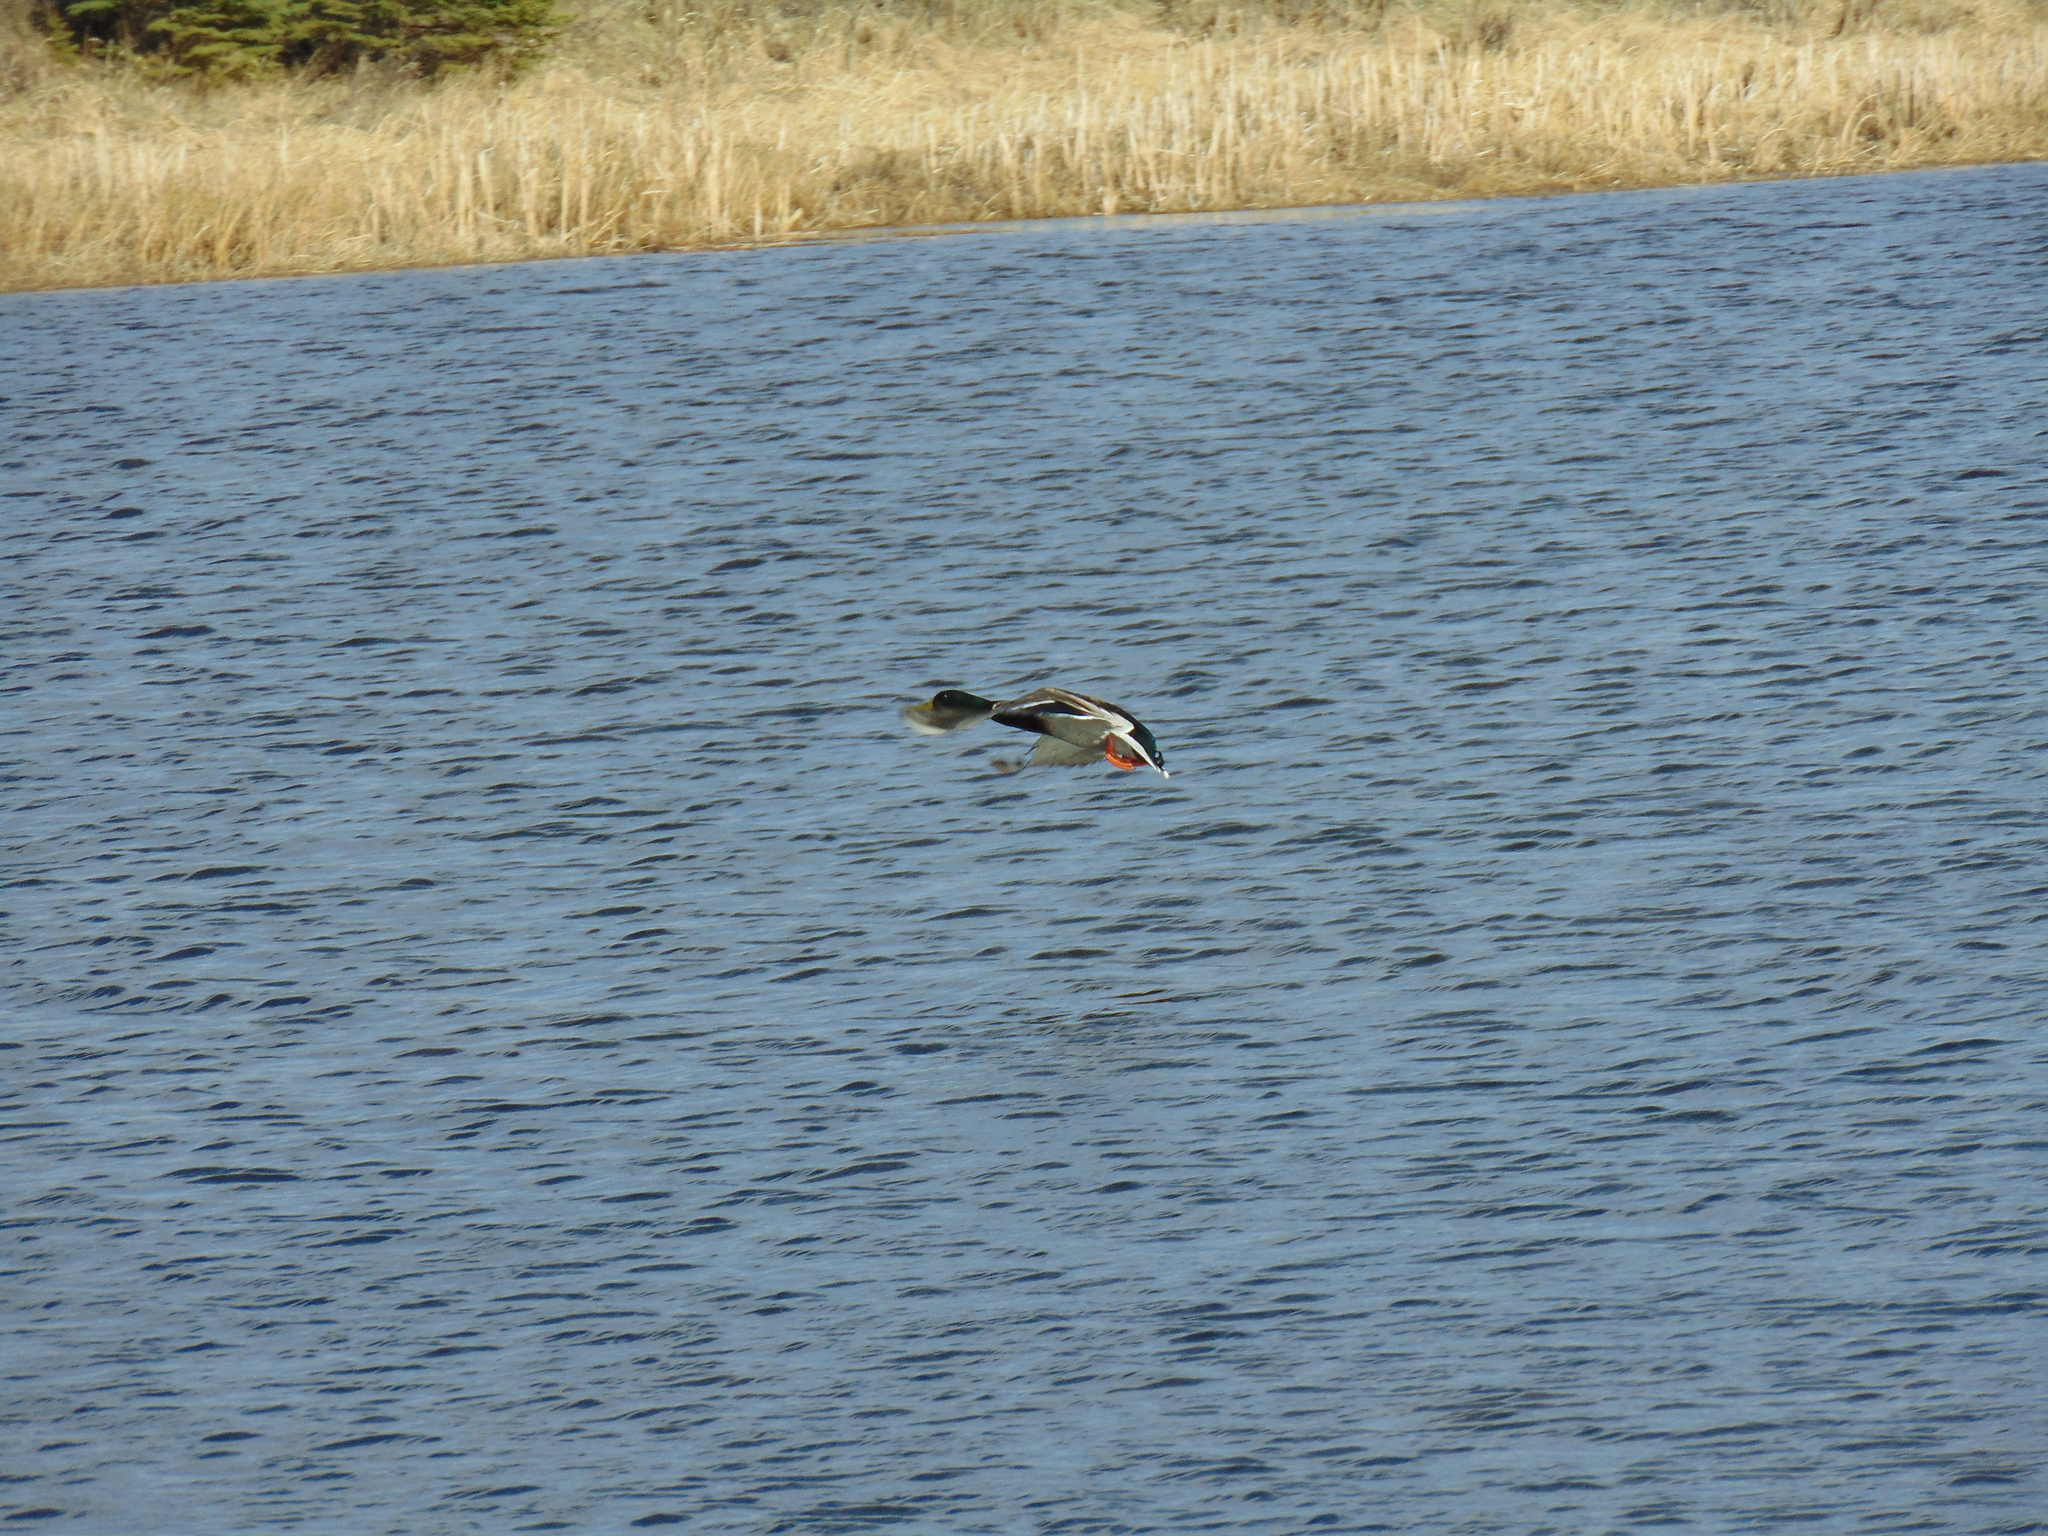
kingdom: Animalia
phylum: Chordata
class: Aves
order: Anseriformes
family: Anatidae
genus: Anas
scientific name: Anas platyrhynchos
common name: Mallard
